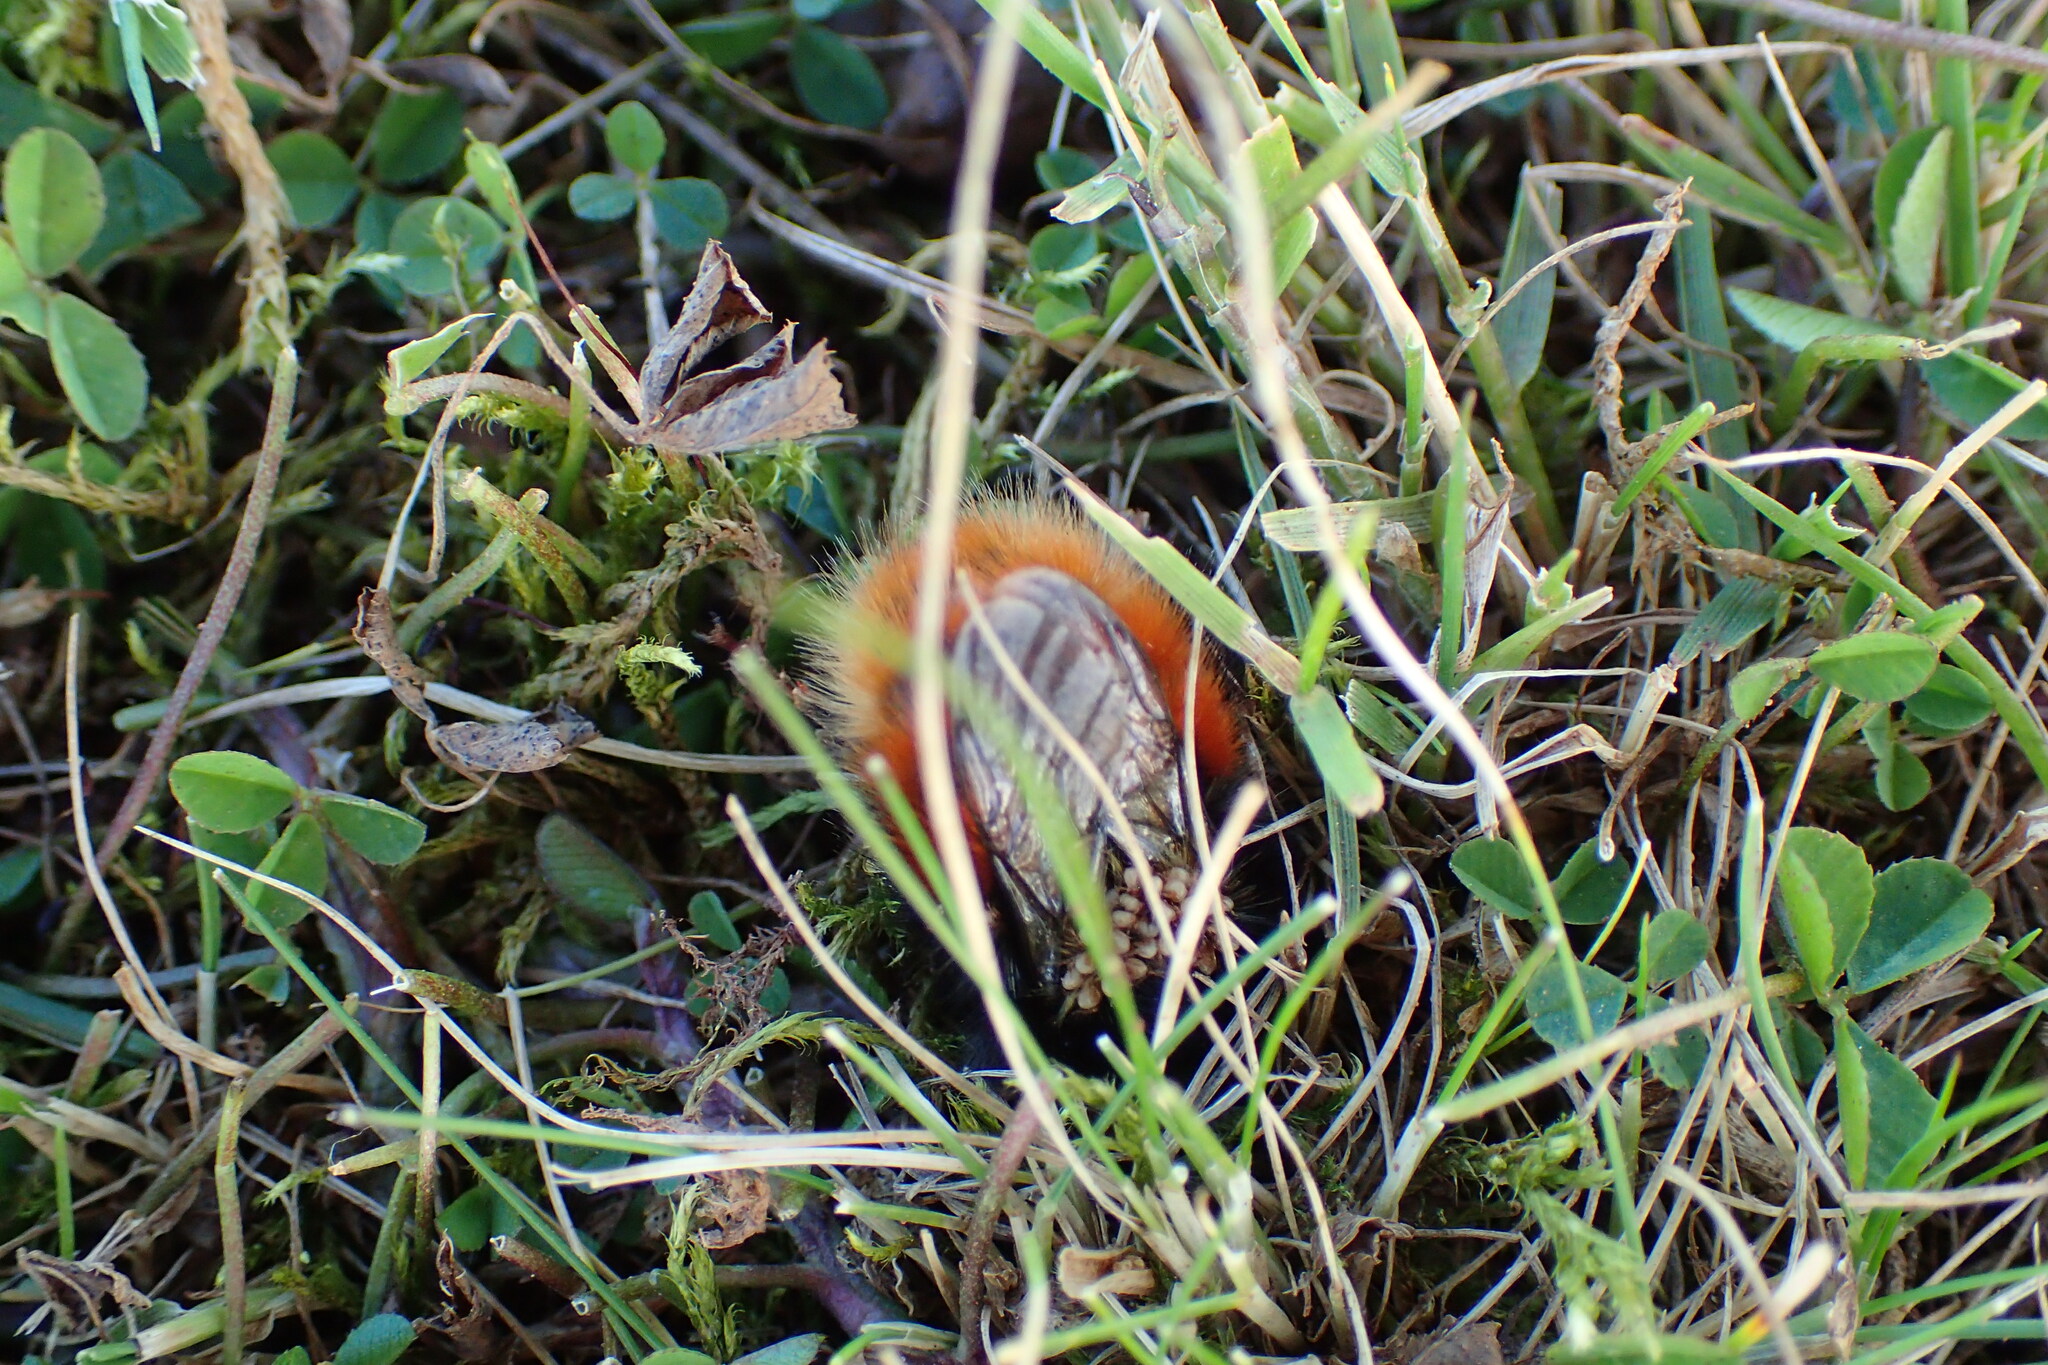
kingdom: Animalia
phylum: Arthropoda
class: Insecta
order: Hymenoptera
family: Apidae
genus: Bombus
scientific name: Bombus monticola
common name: Bilberry humble-bee
